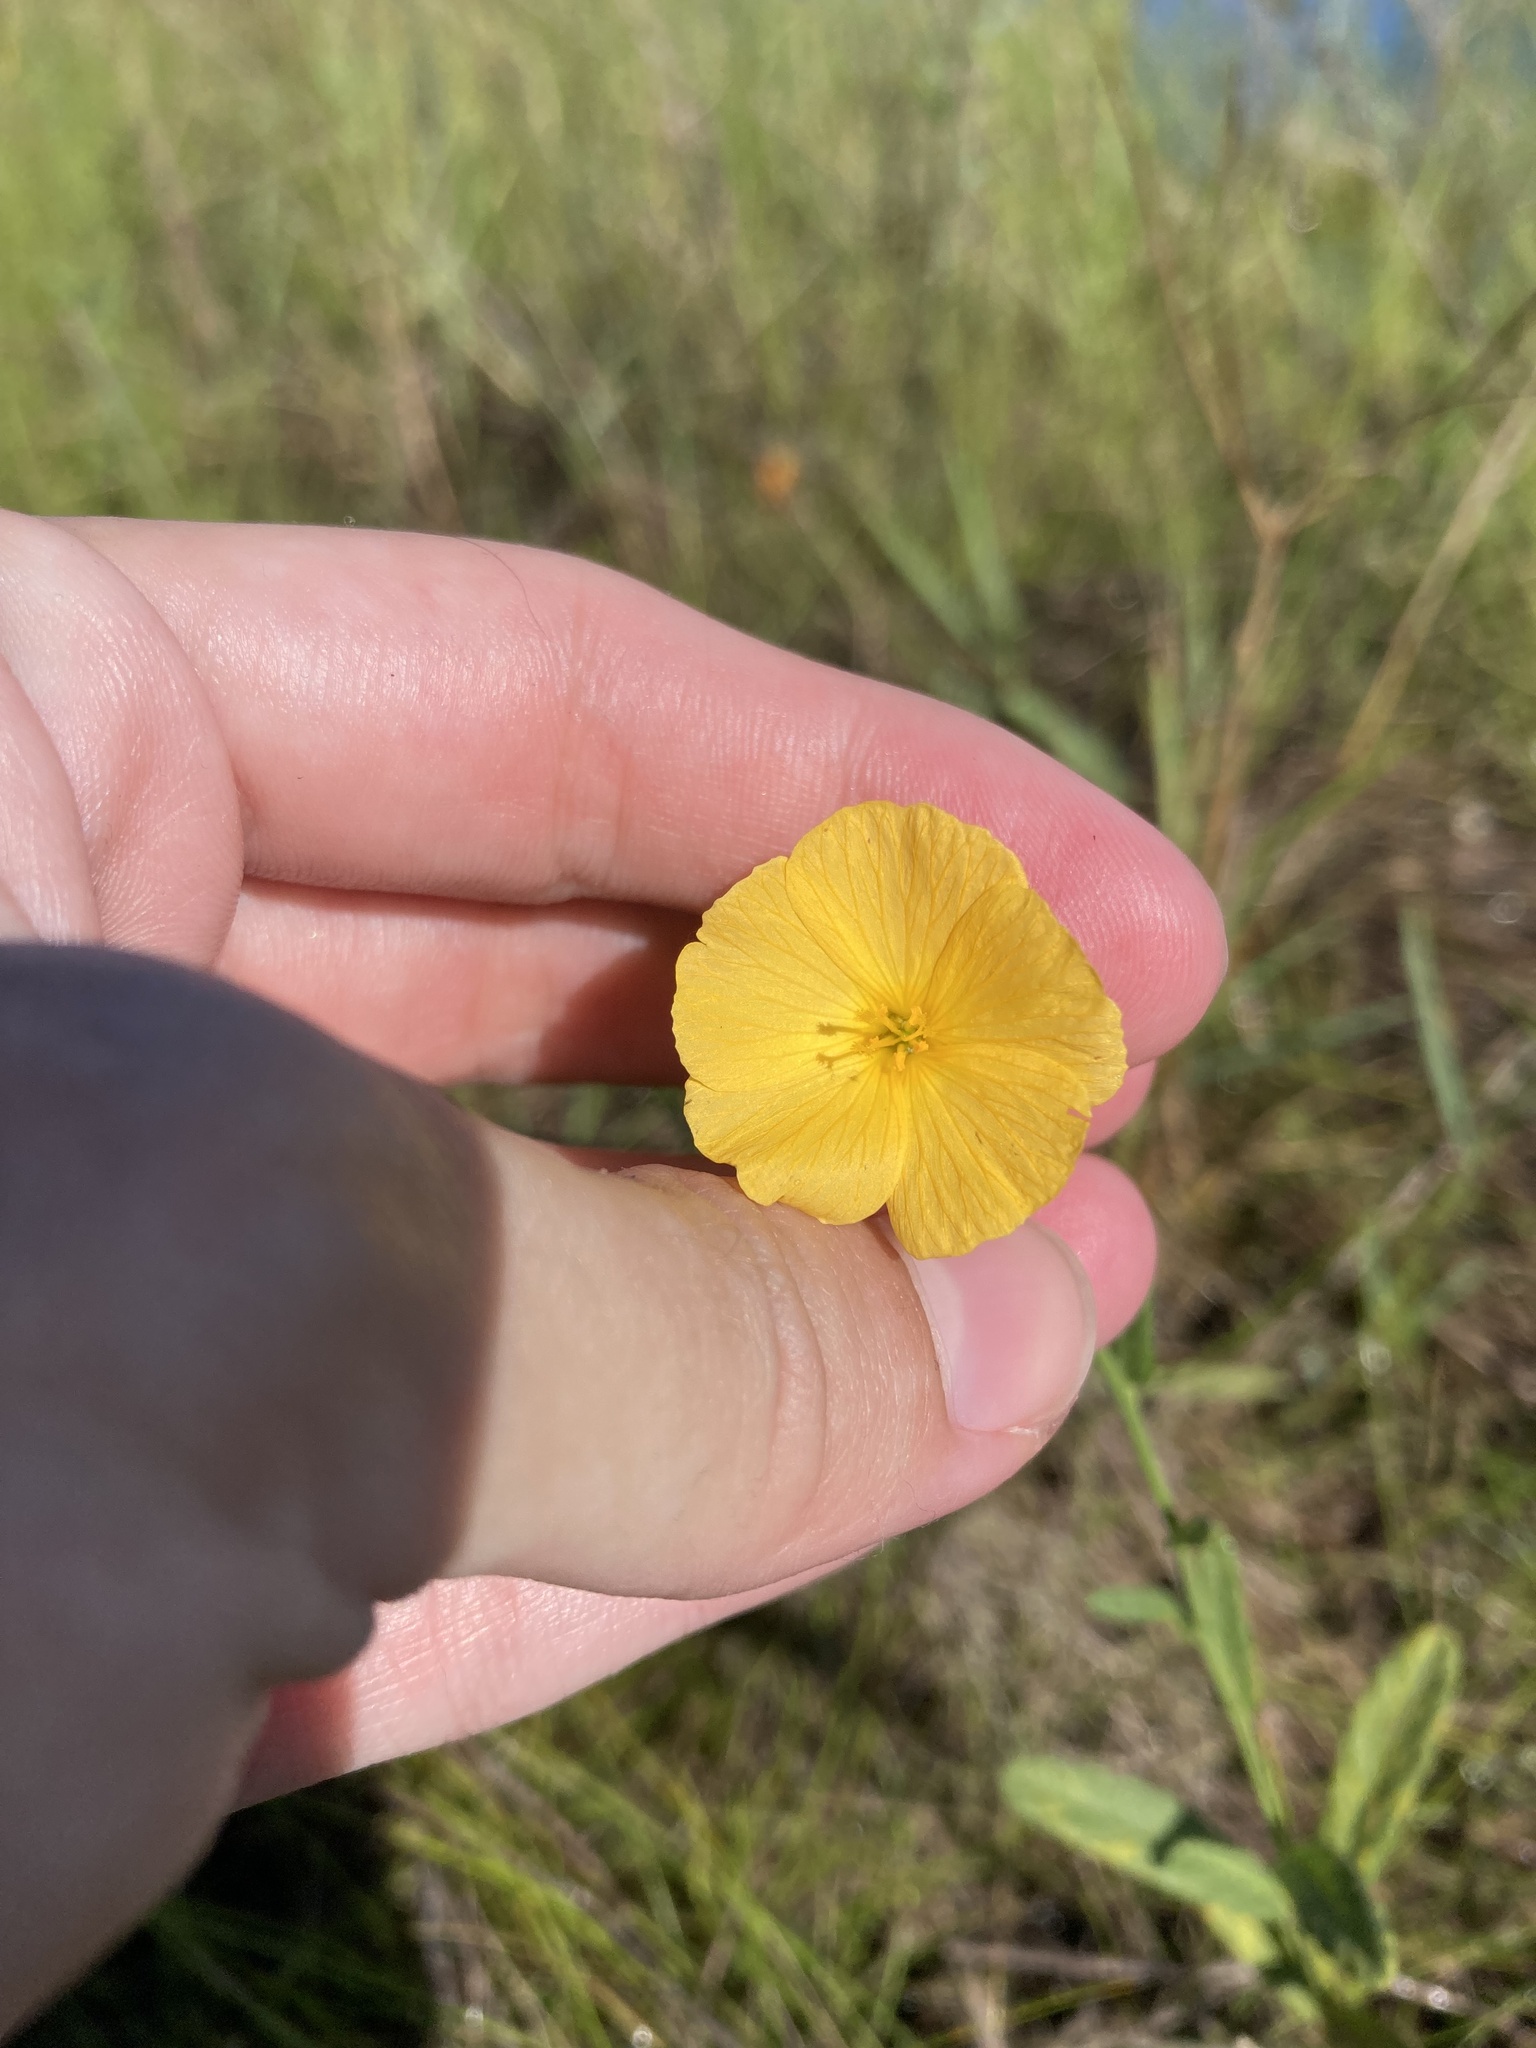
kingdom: Plantae
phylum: Tracheophyta
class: Magnoliopsida
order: Malpighiales
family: Turneraceae
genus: Piriqueta
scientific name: Piriqueta cistoides
